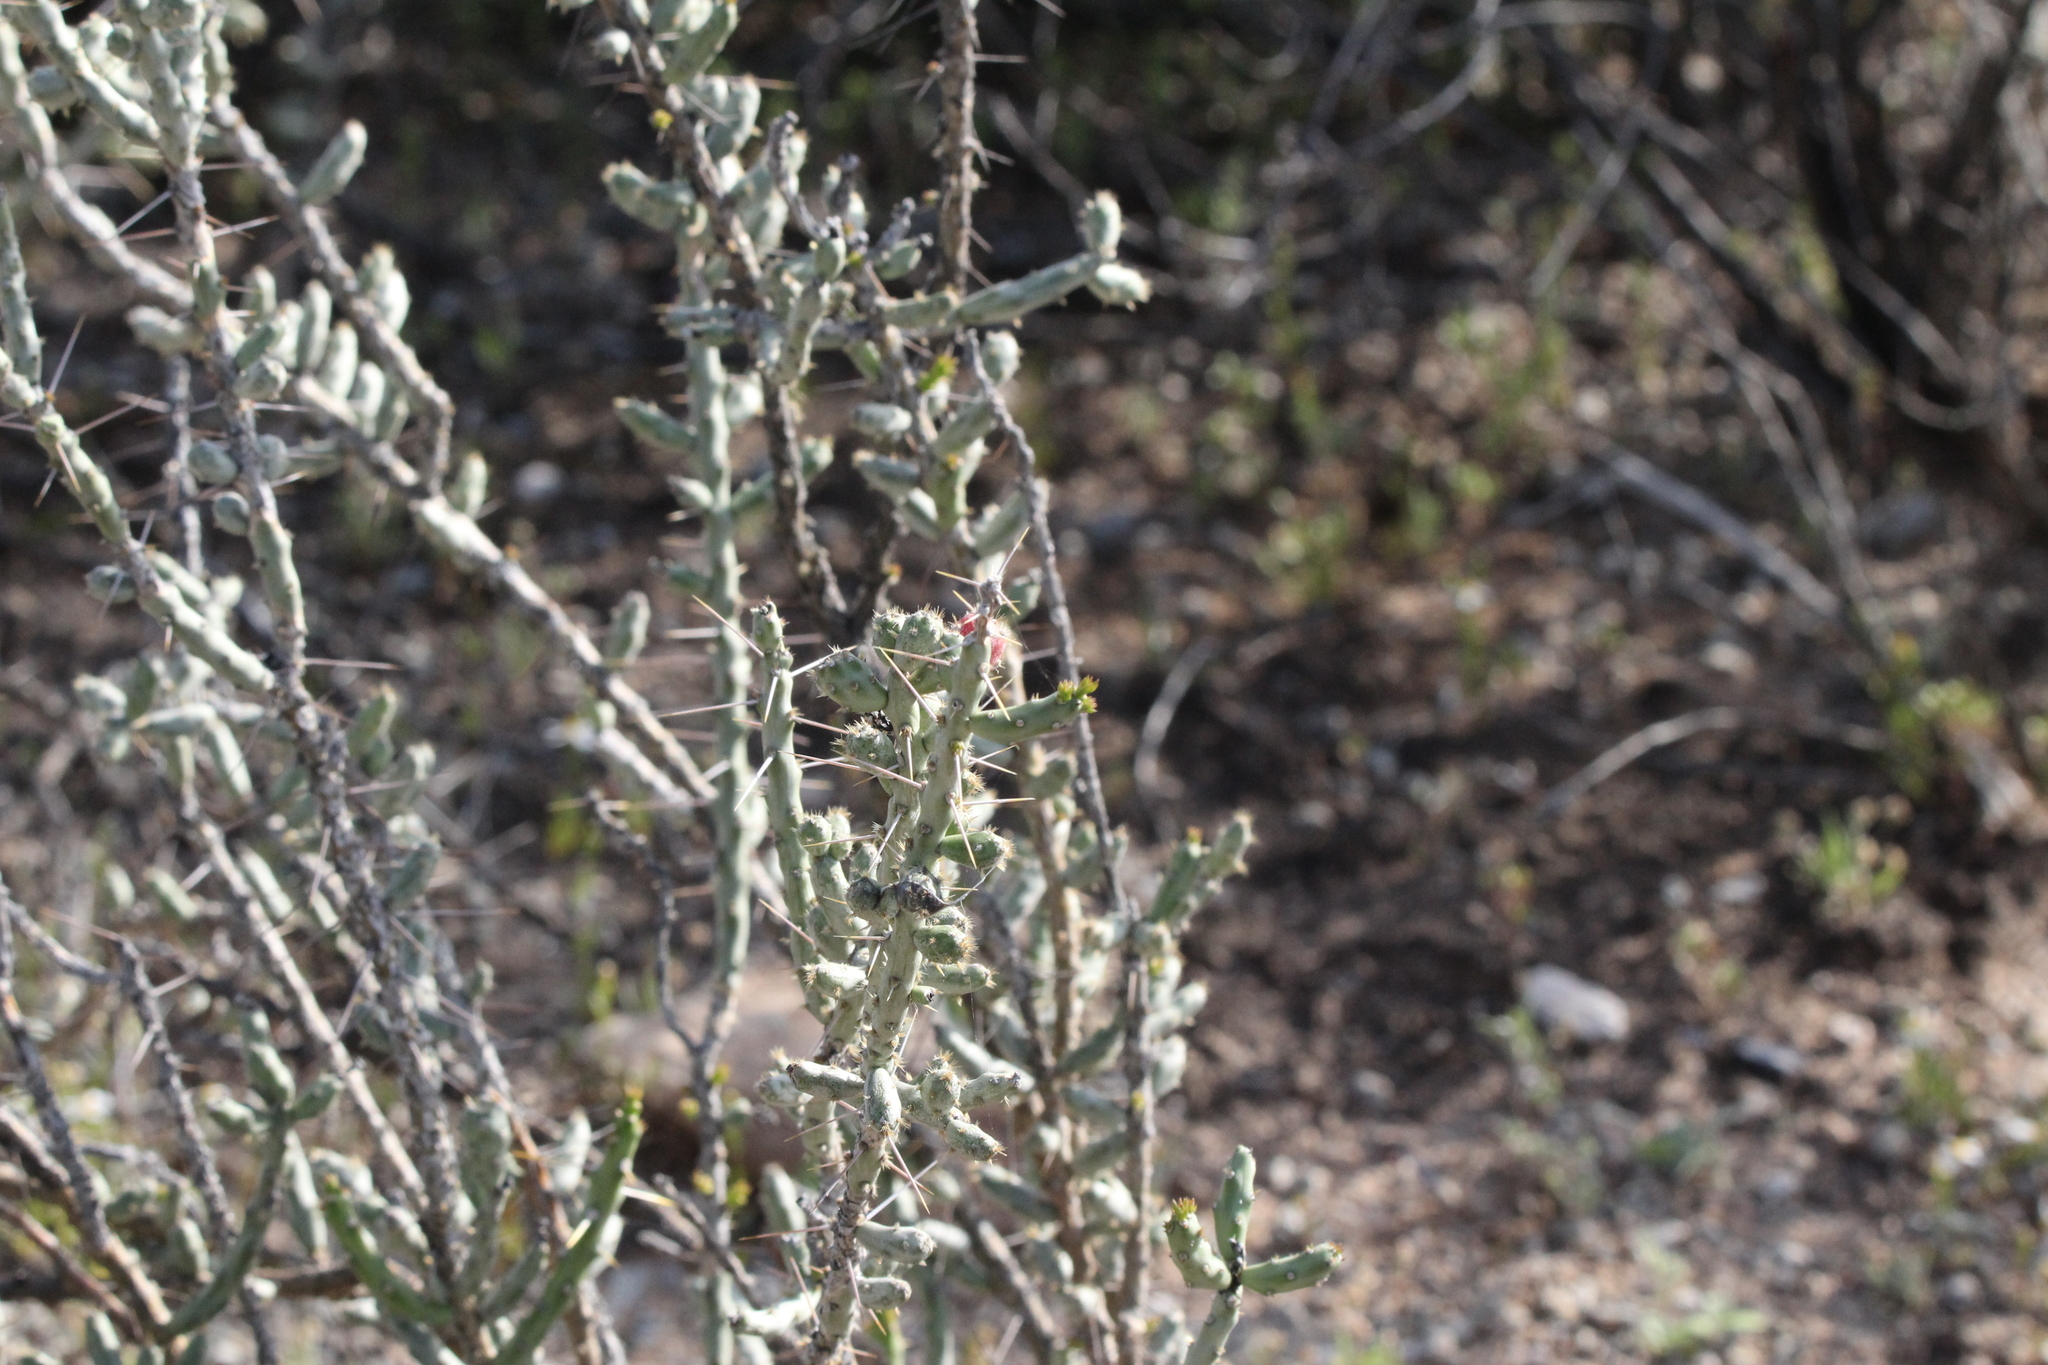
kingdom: Plantae
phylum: Tracheophyta
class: Magnoliopsida
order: Caryophyllales
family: Cactaceae
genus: Cylindropuntia
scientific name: Cylindropuntia leptocaulis
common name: Christmas cactus
